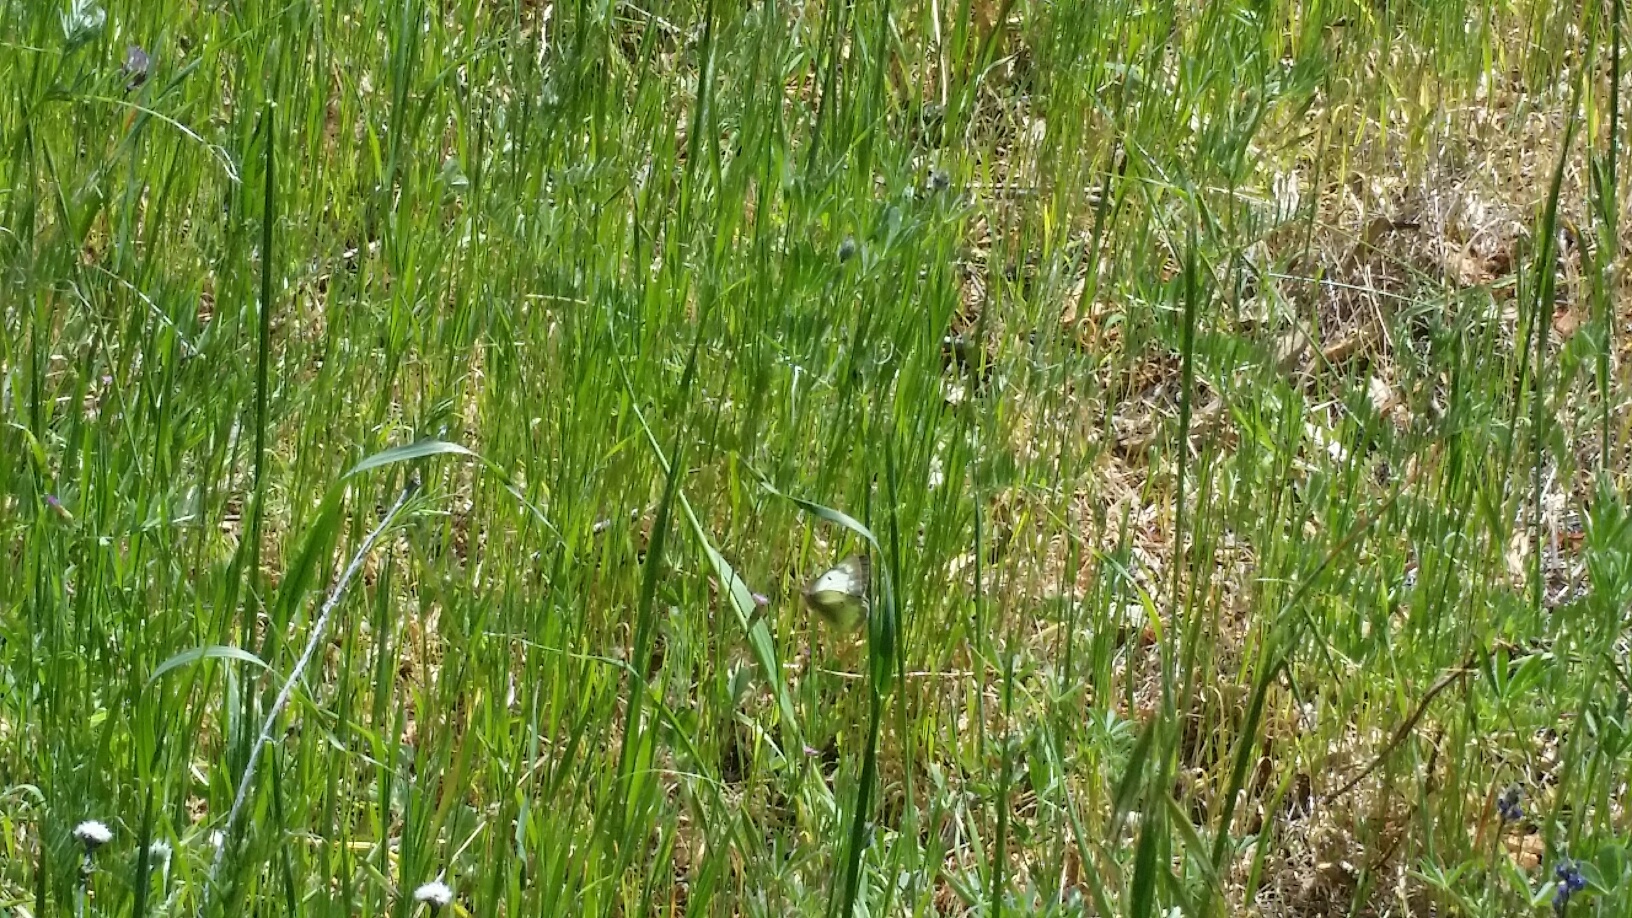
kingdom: Animalia
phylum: Arthropoda
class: Insecta
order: Lepidoptera
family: Pieridae
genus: Colias
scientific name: Colias eurytheme
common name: Alfalfa butterfly
